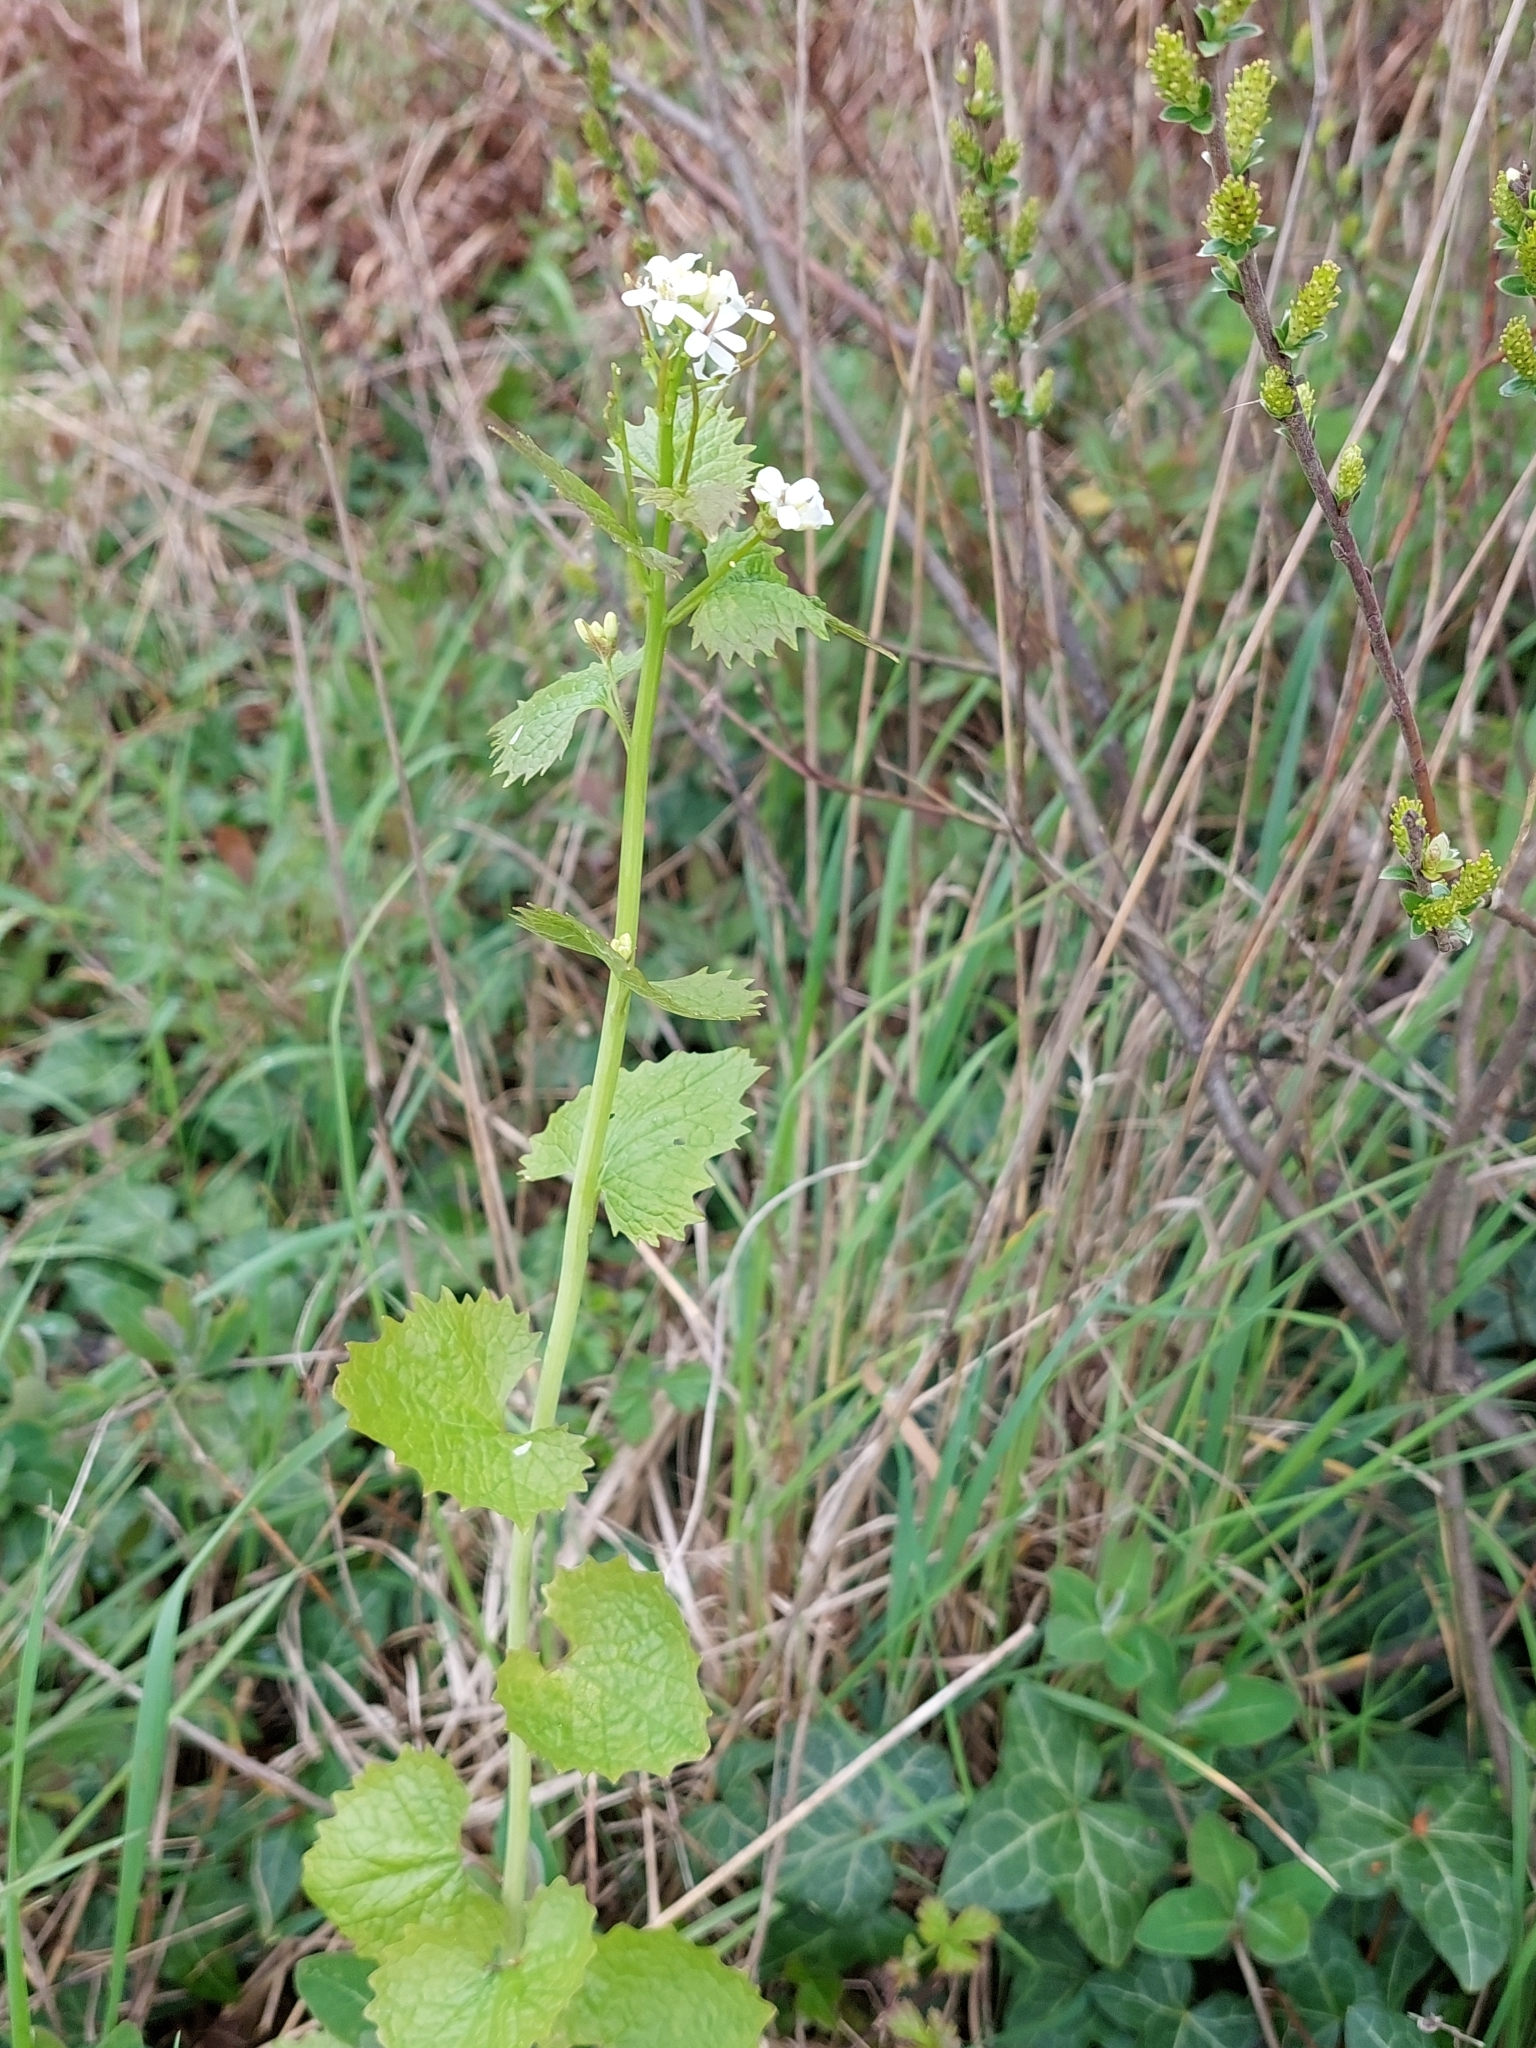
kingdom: Plantae
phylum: Tracheophyta
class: Magnoliopsida
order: Brassicales
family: Brassicaceae
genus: Alliaria
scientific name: Alliaria petiolata
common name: Garlic mustard
